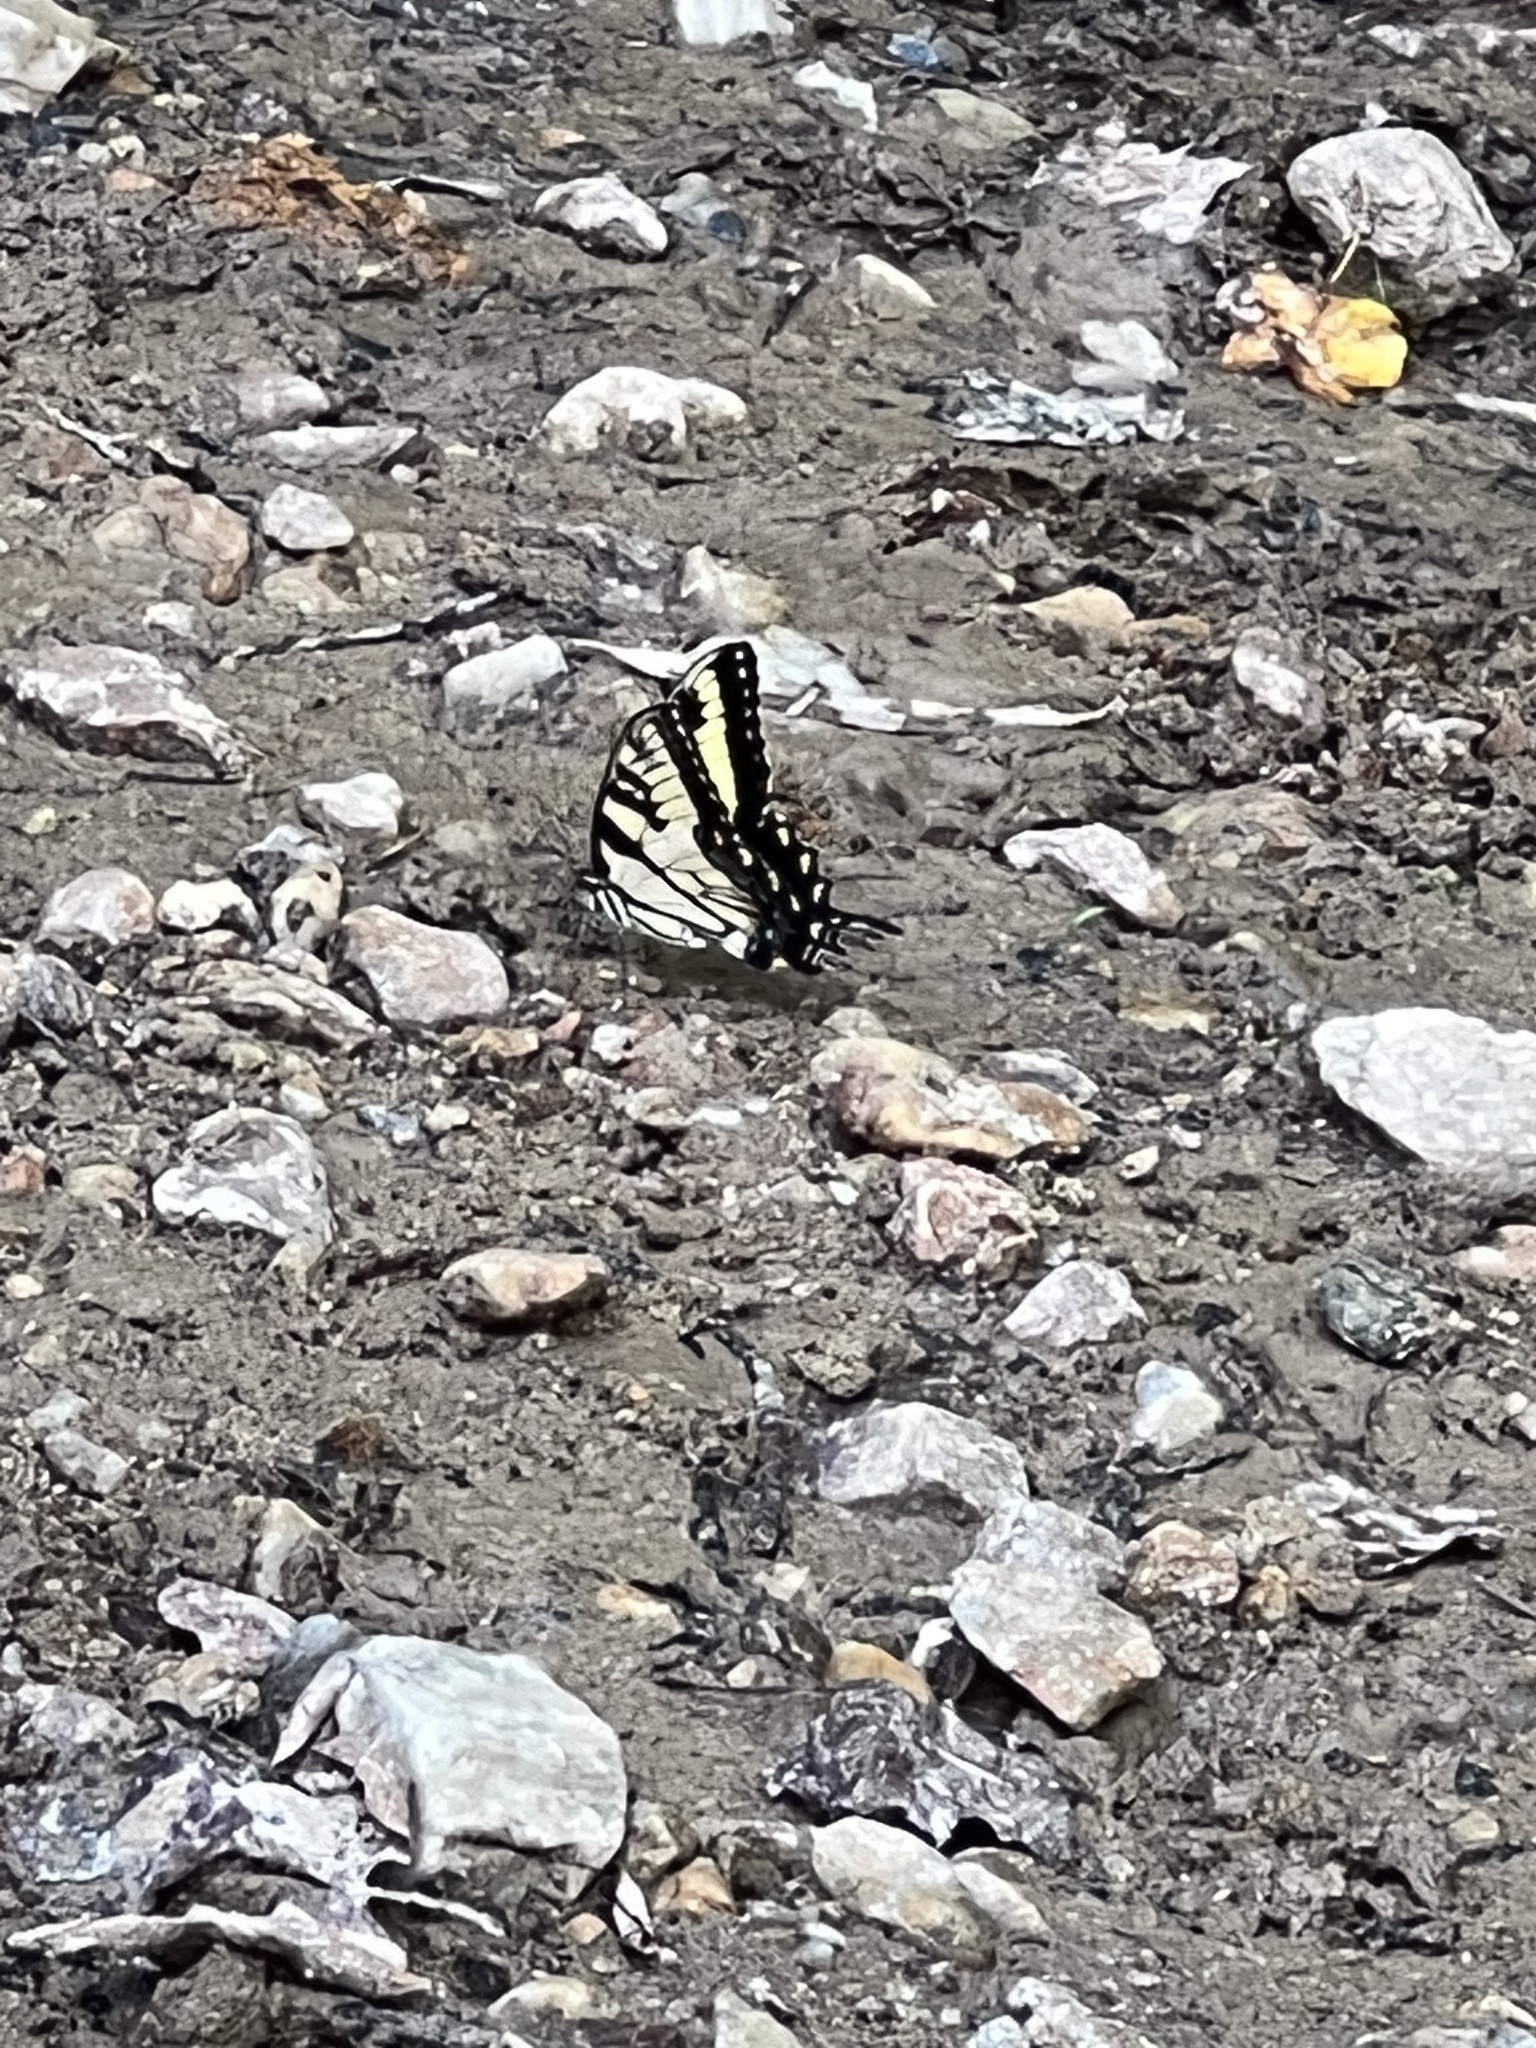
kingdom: Animalia
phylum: Arthropoda
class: Insecta
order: Lepidoptera
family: Papilionidae
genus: Papilio
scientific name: Papilio glaucus
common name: Tiger swallowtail
